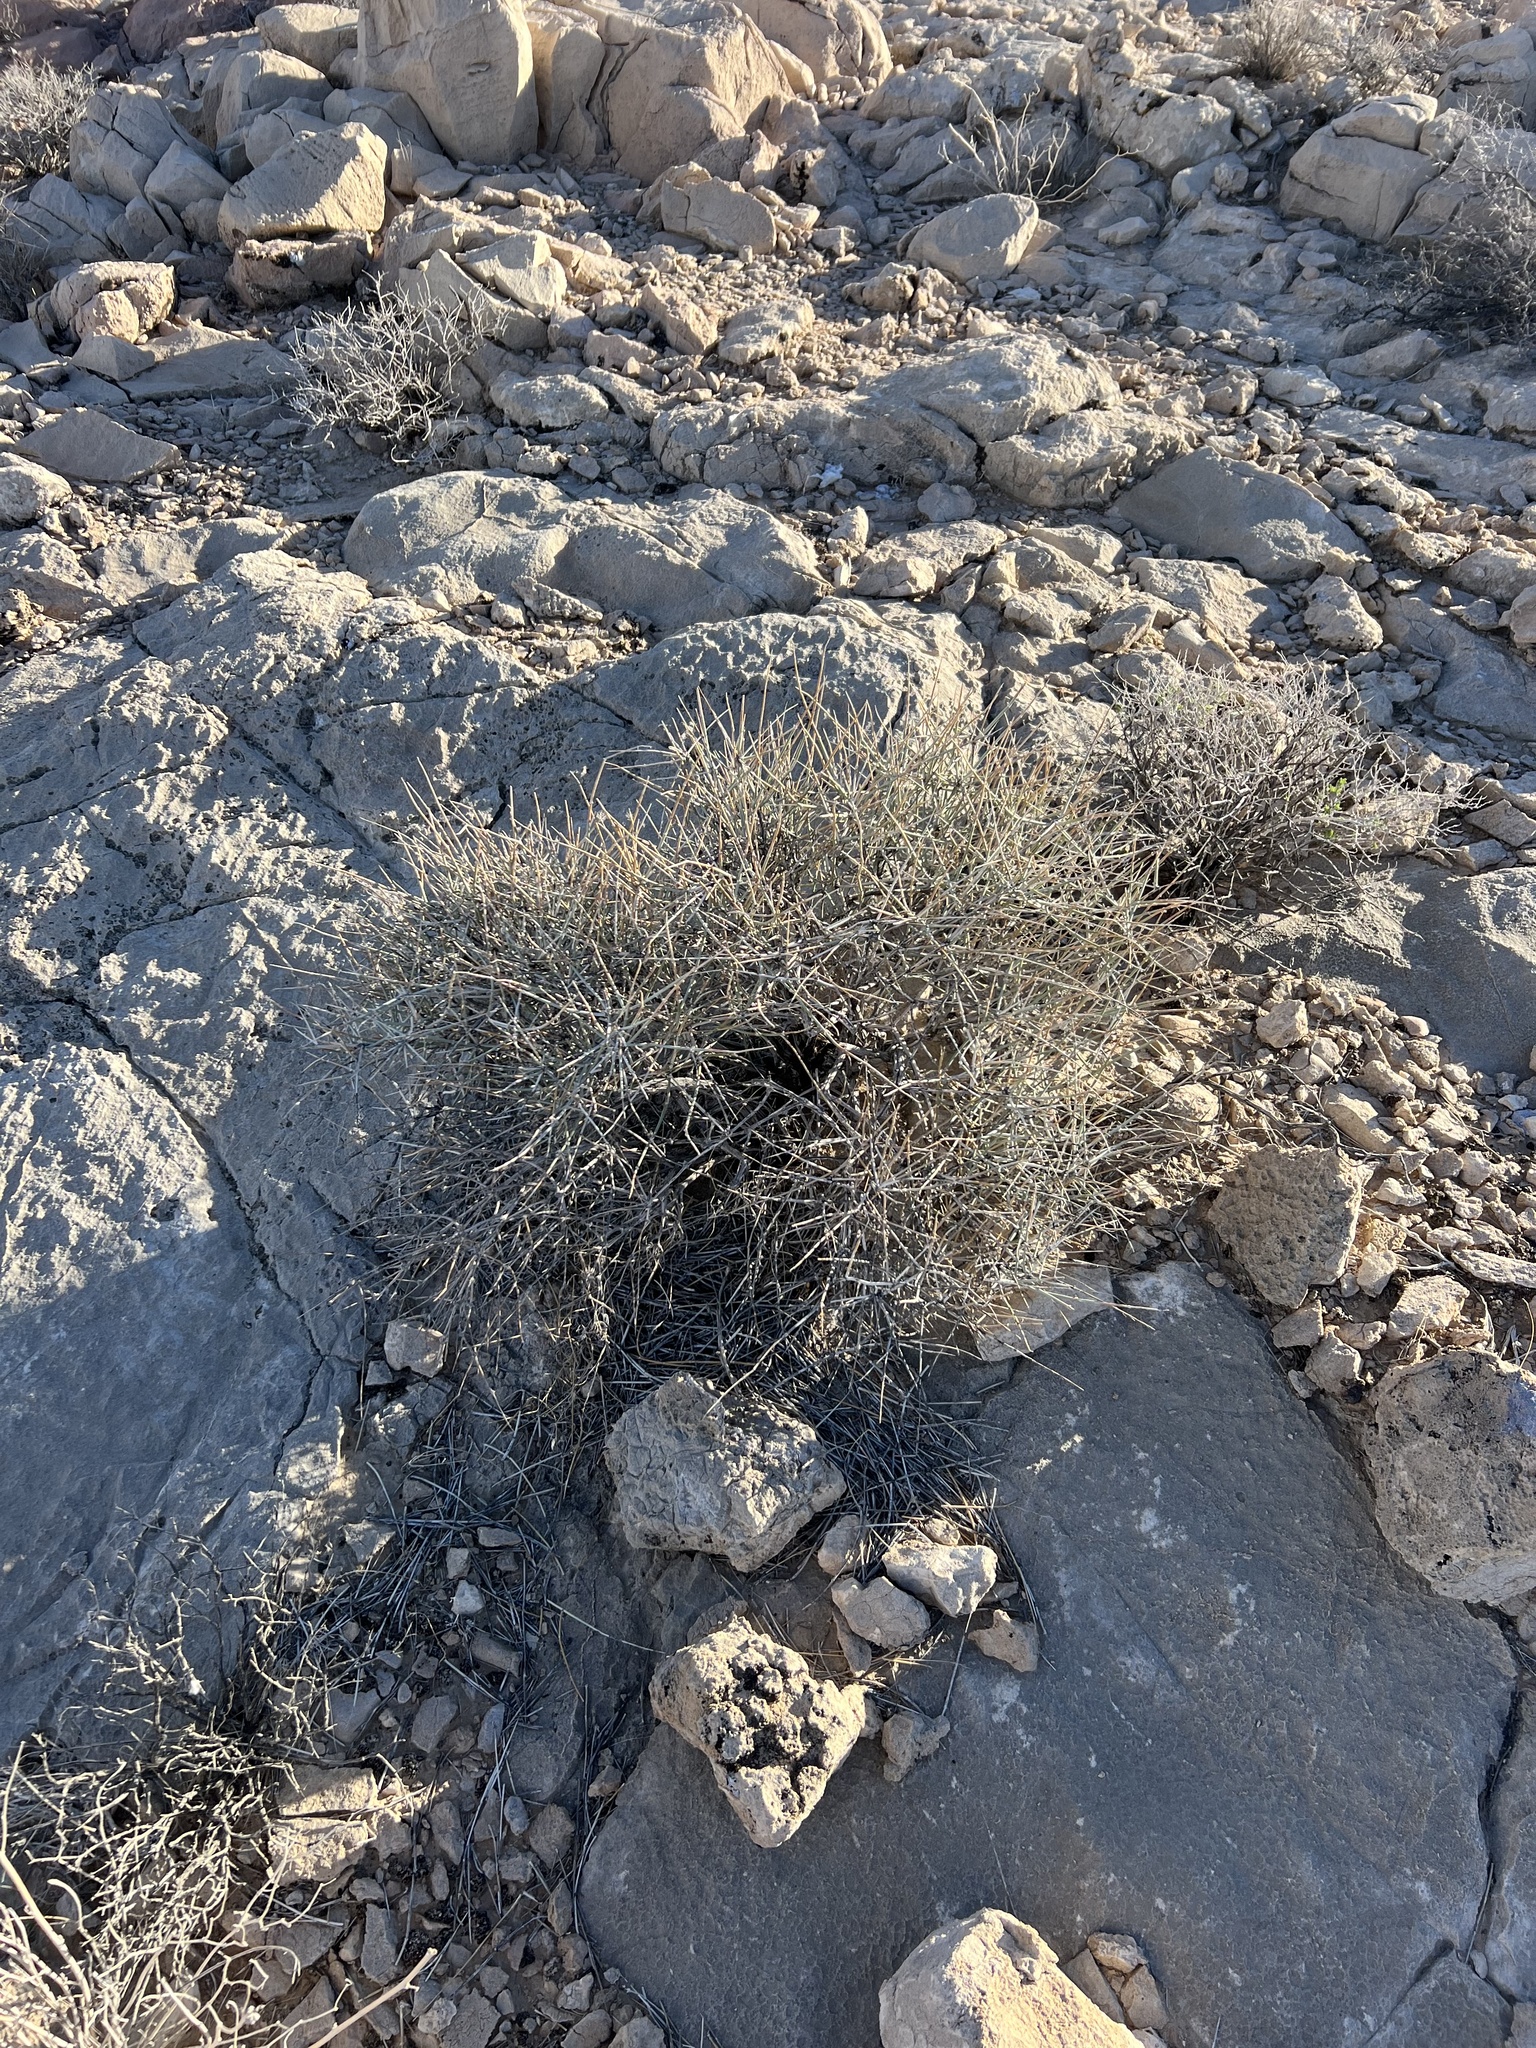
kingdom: Plantae
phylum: Tracheophyta
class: Gnetopsida
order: Ephedrales
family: Ephedraceae
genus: Ephedra
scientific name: Ephedra nevadensis
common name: Gray ephedra
